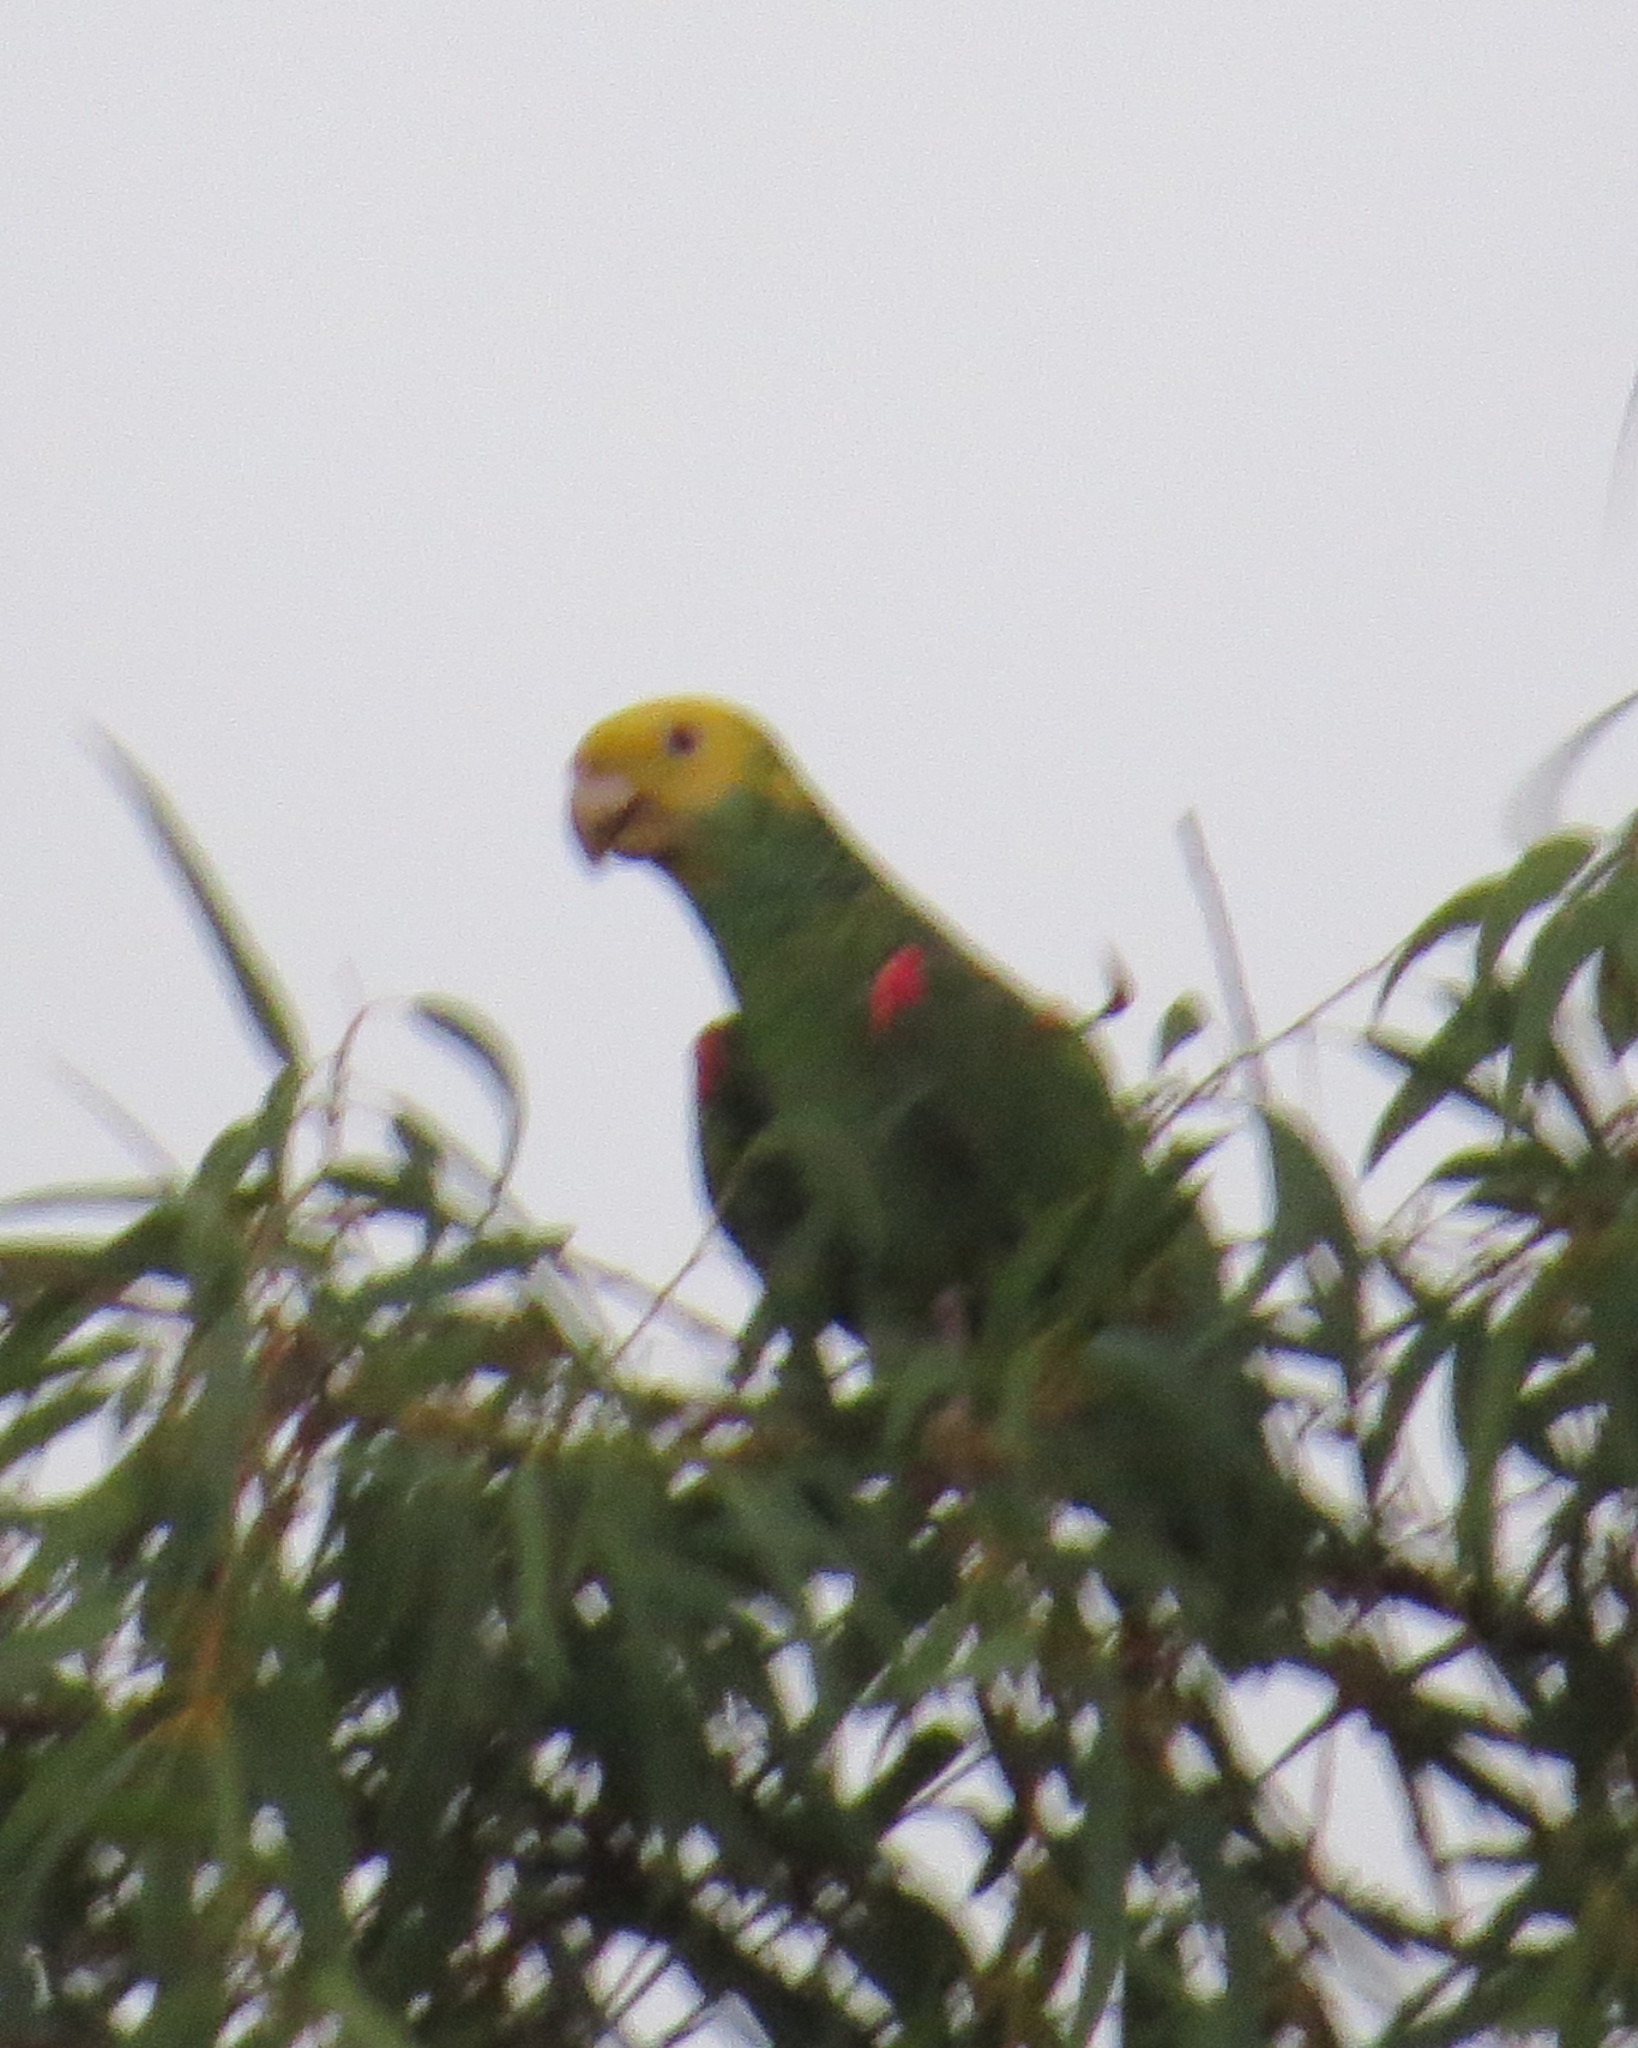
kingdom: Animalia
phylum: Chordata
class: Aves
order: Psittaciformes
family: Psittacidae
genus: Amazona
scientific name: Amazona oratrix
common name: Yellow-headed amazon
